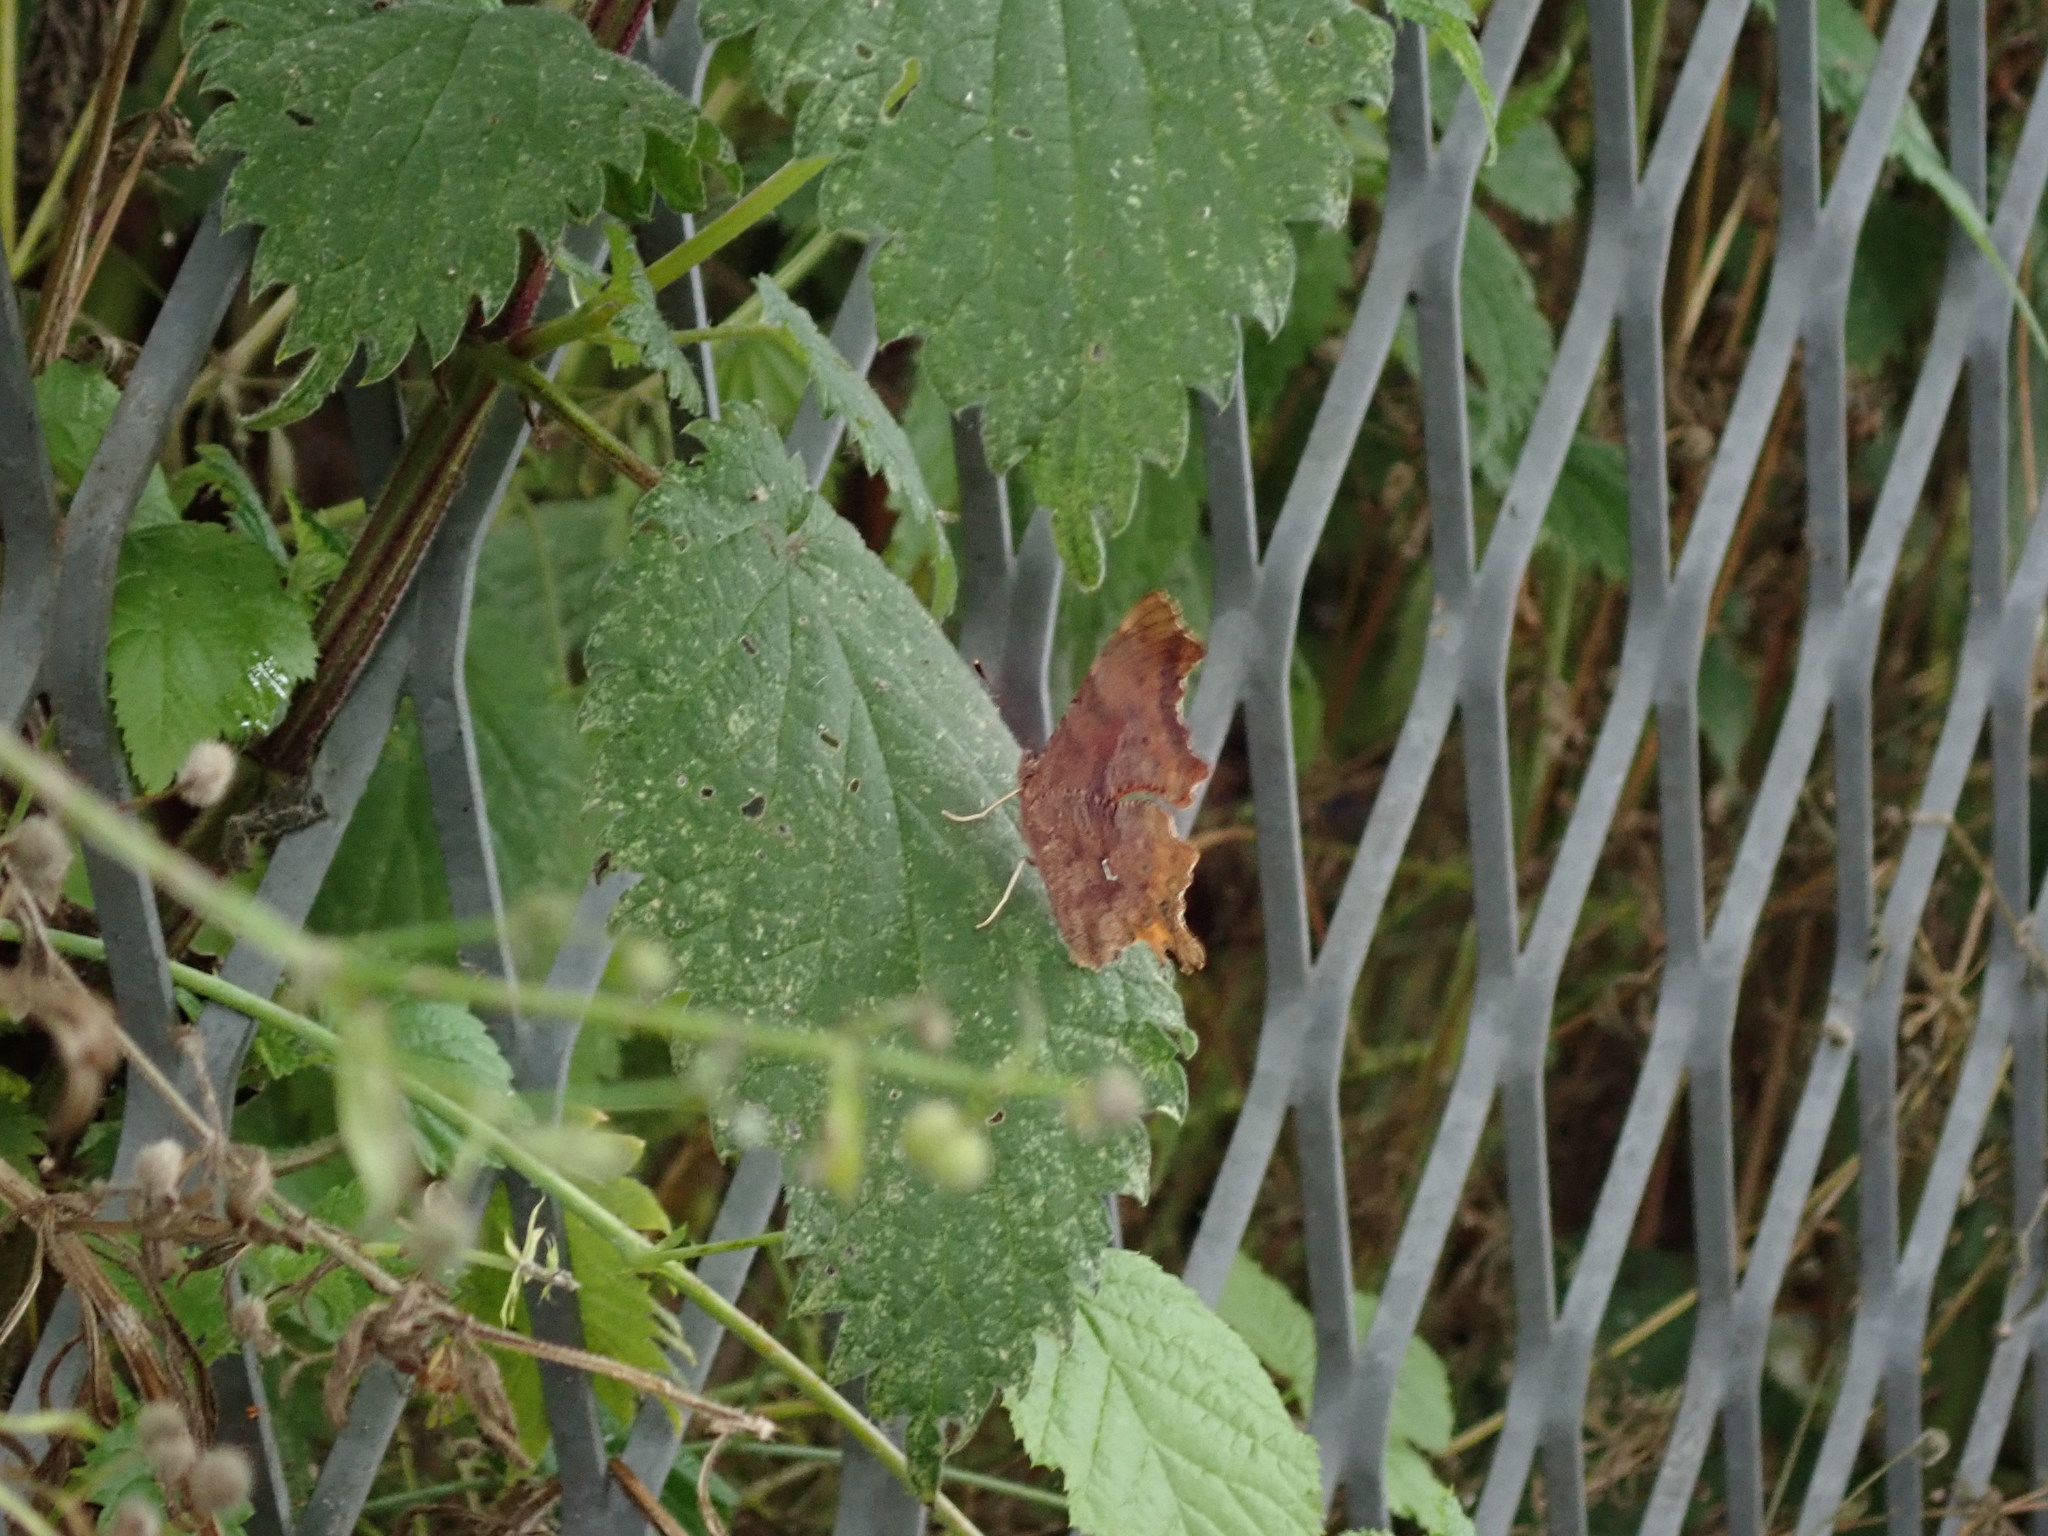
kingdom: Animalia
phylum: Arthropoda
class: Insecta
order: Lepidoptera
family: Nymphalidae
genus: Polygonia
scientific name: Polygonia c-album
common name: Comma
